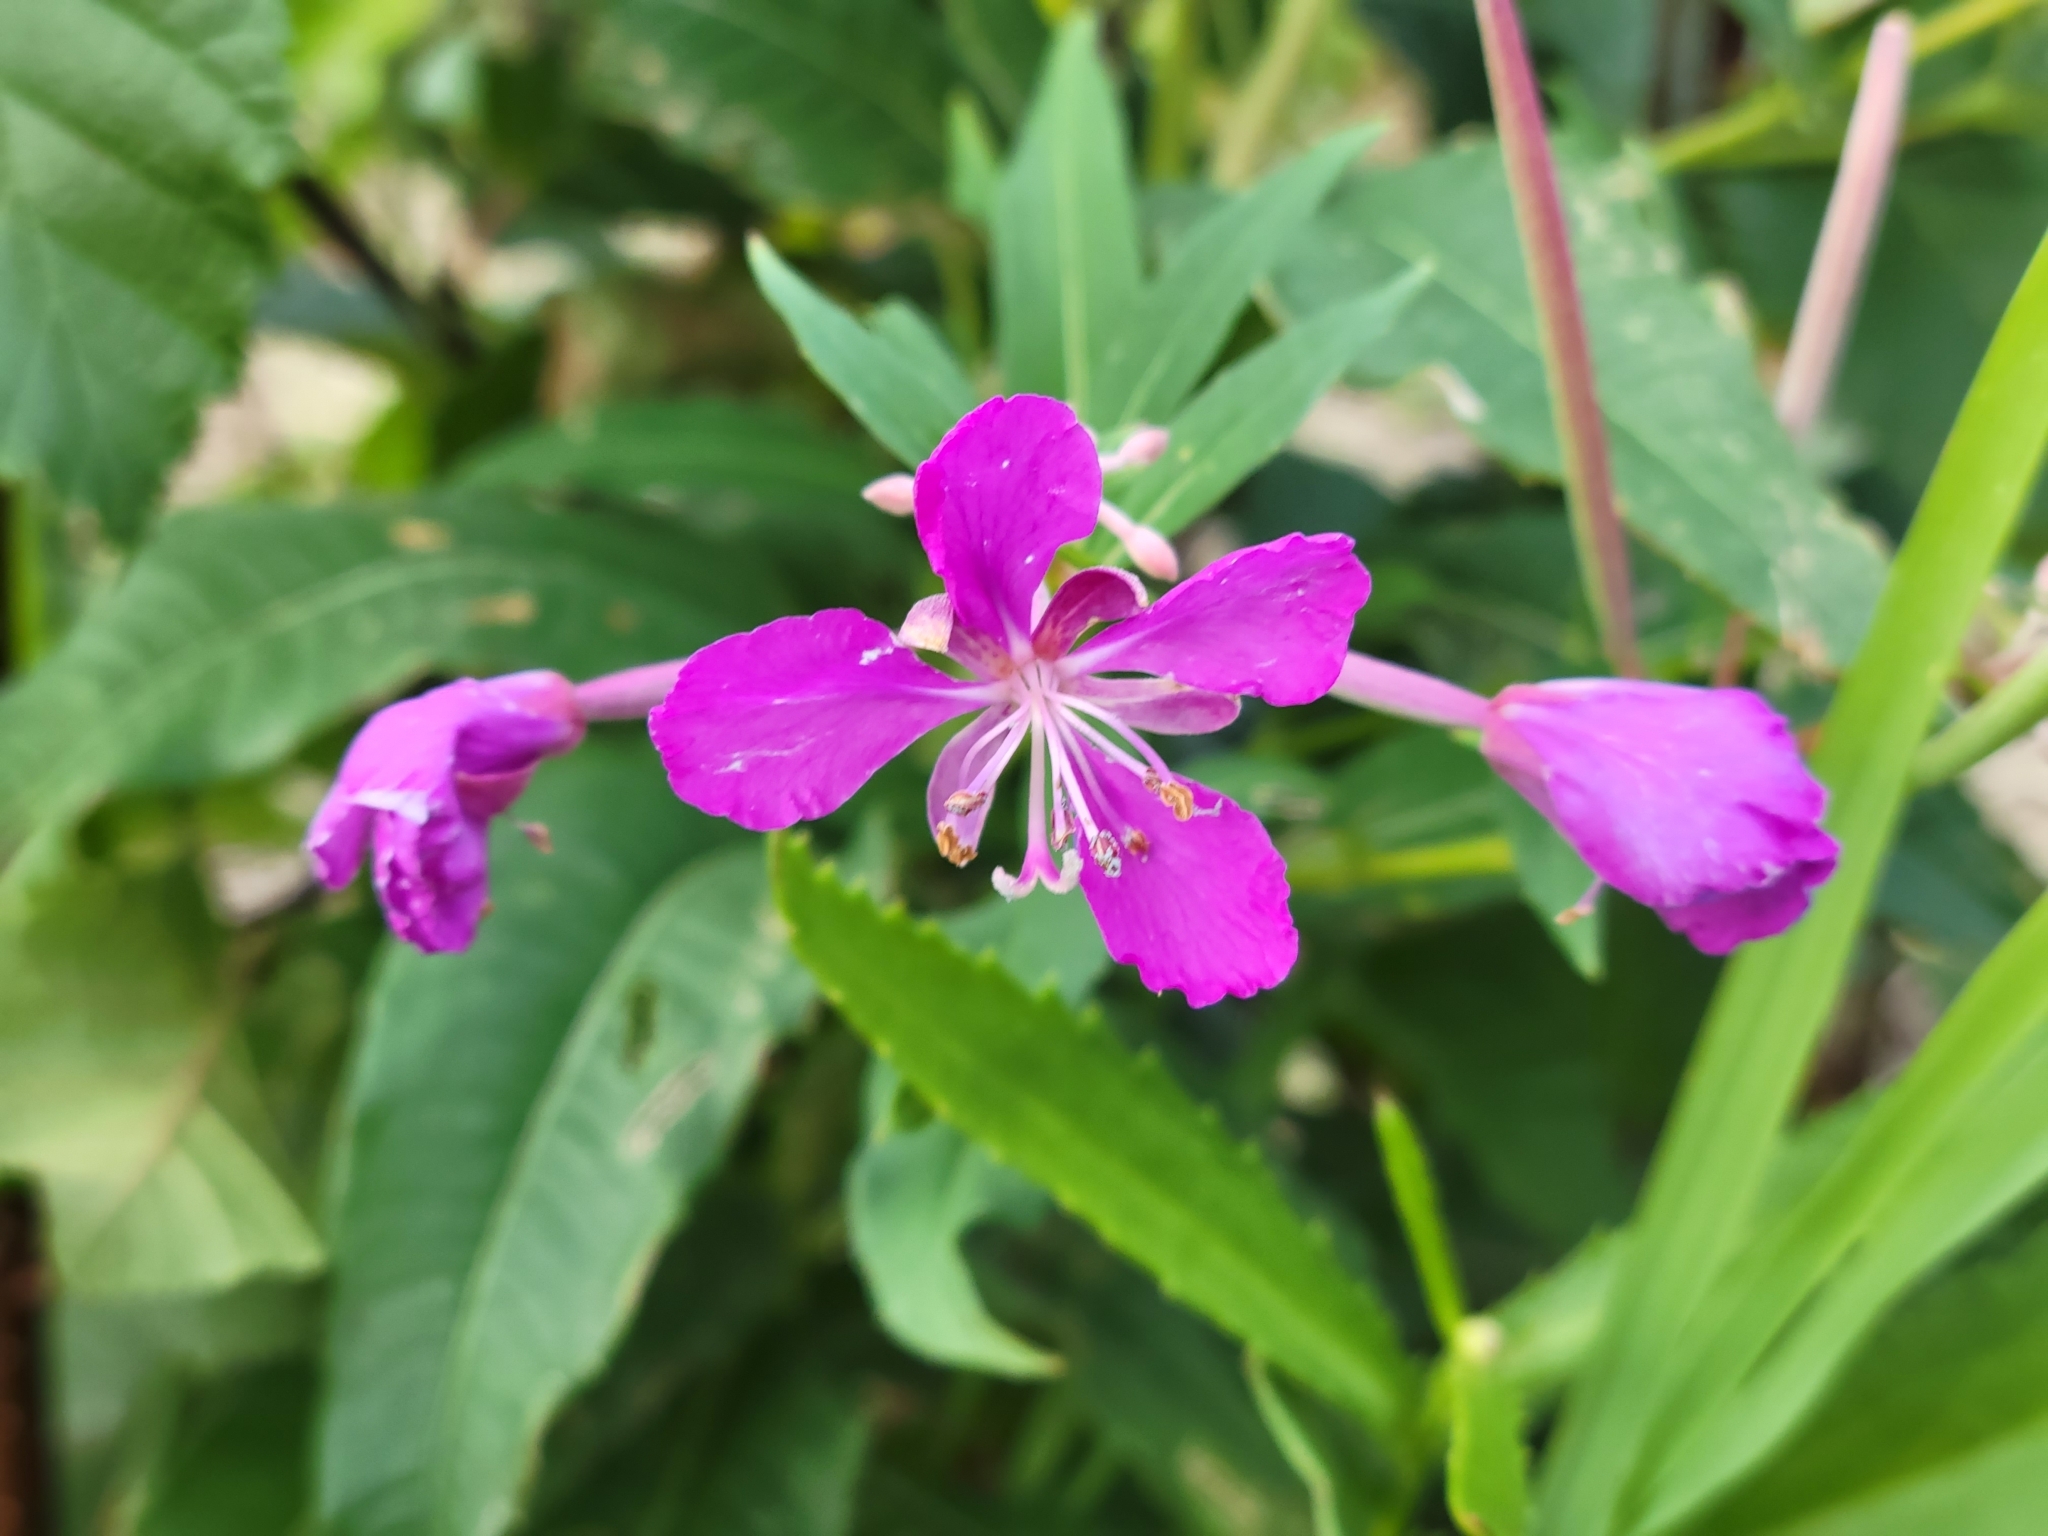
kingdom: Plantae
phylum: Tracheophyta
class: Magnoliopsida
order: Myrtales
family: Onagraceae
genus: Chamaenerion
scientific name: Chamaenerion angustifolium
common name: Fireweed
